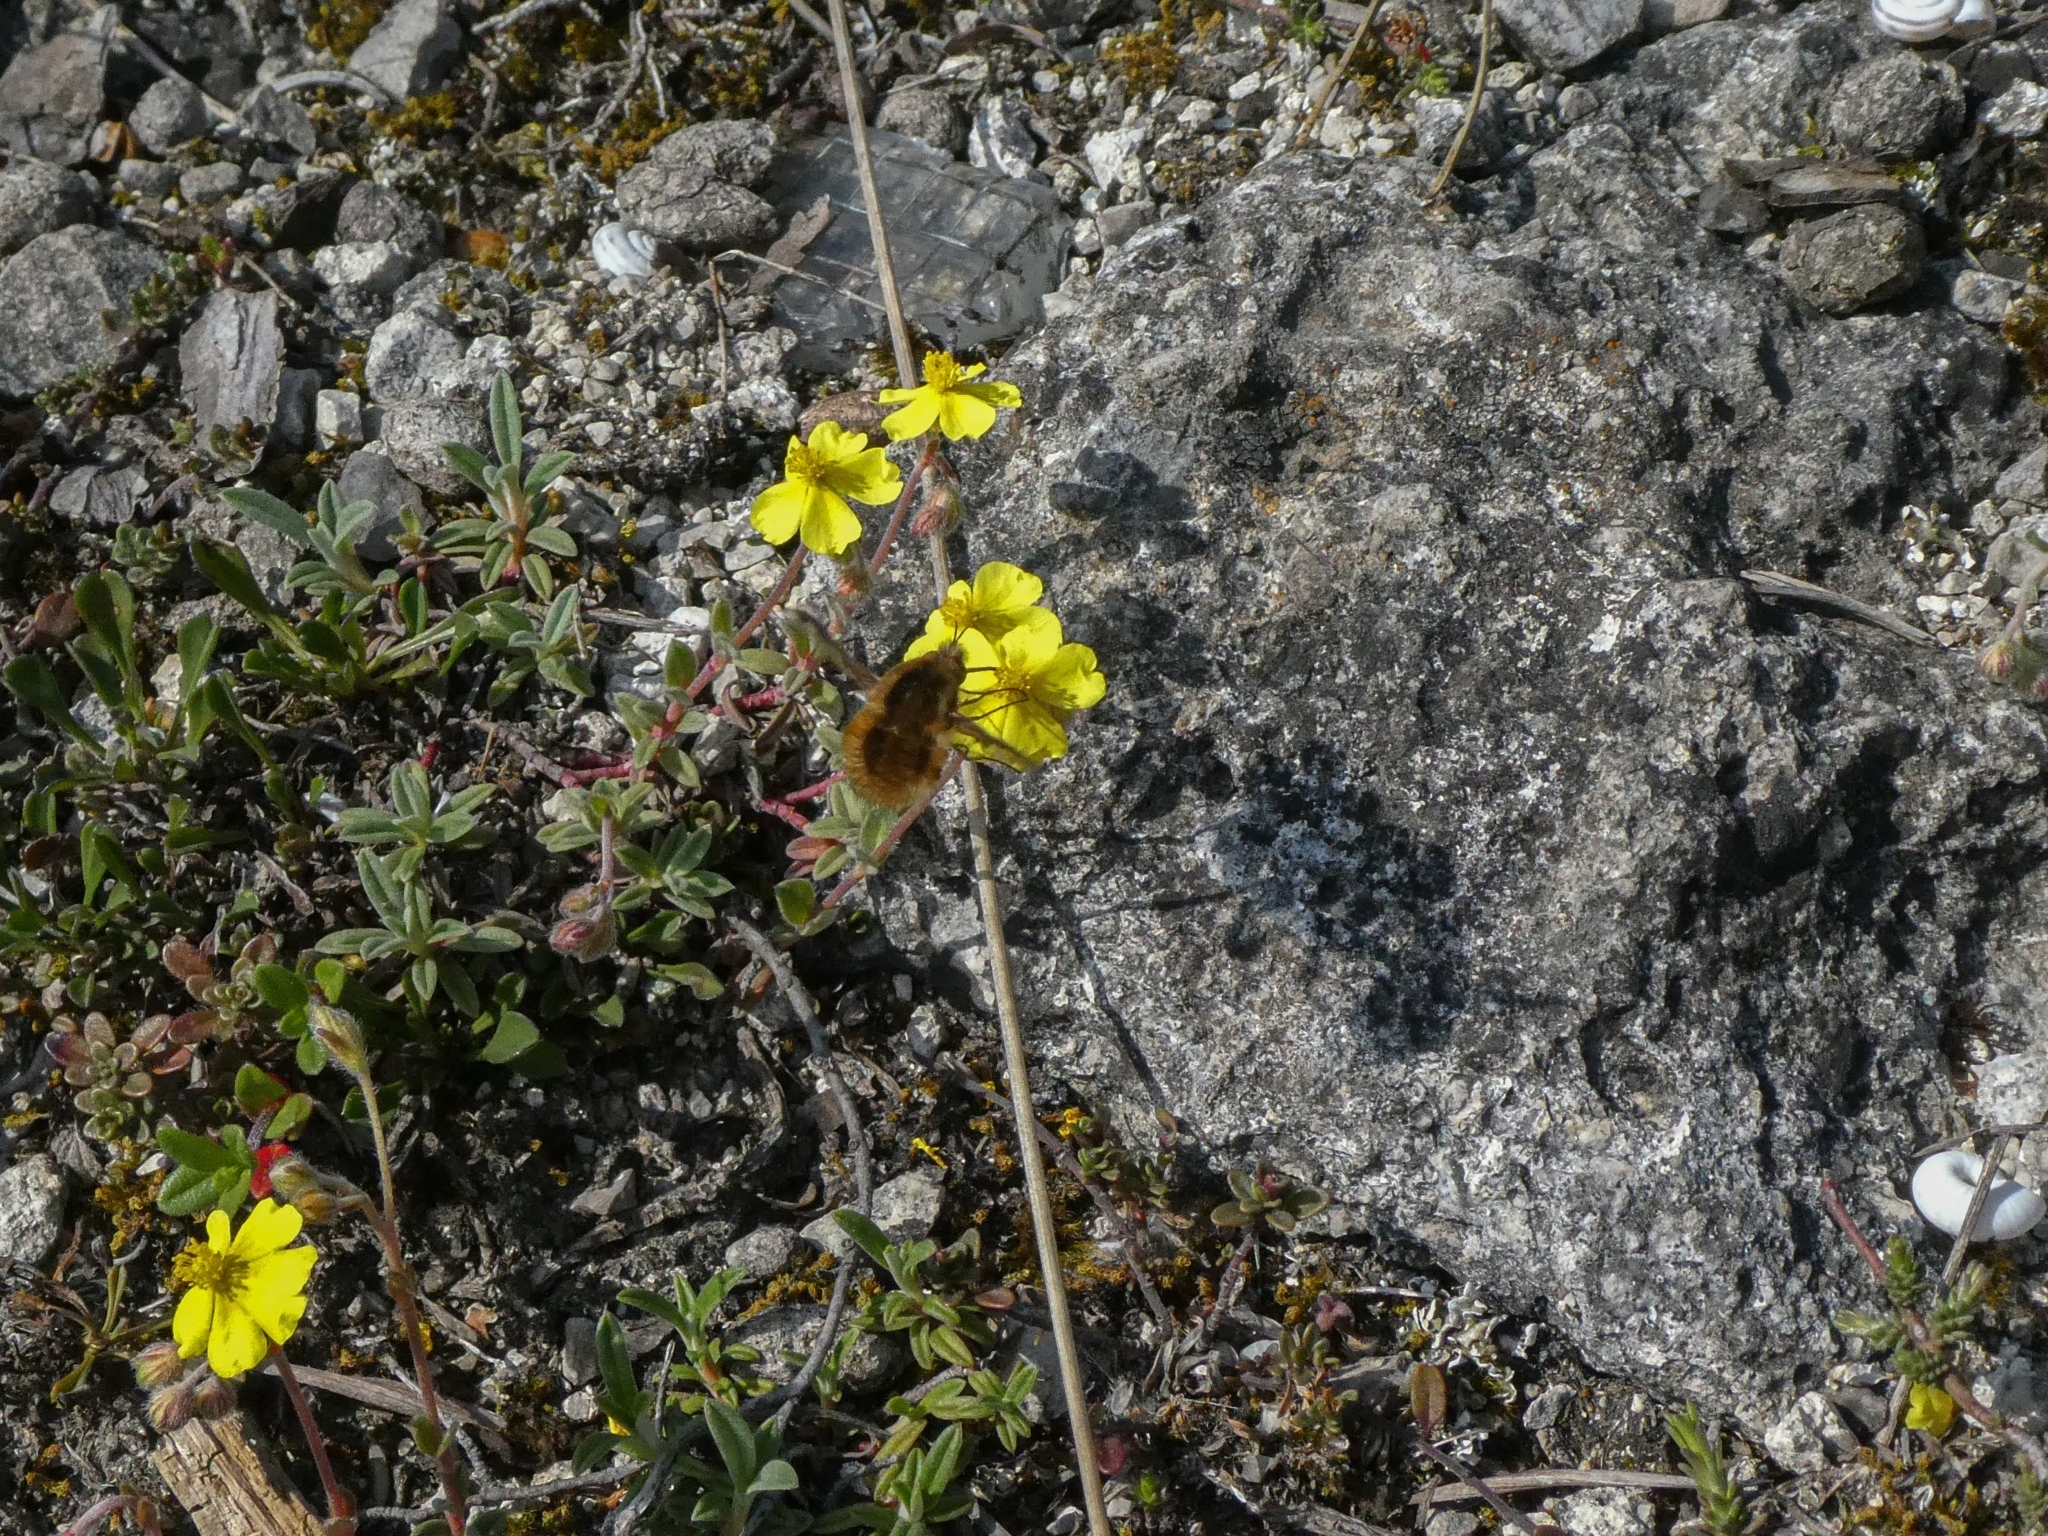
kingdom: Animalia
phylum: Arthropoda
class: Insecta
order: Diptera
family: Bombyliidae
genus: Bombylius
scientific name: Bombylius major
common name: Bee fly
